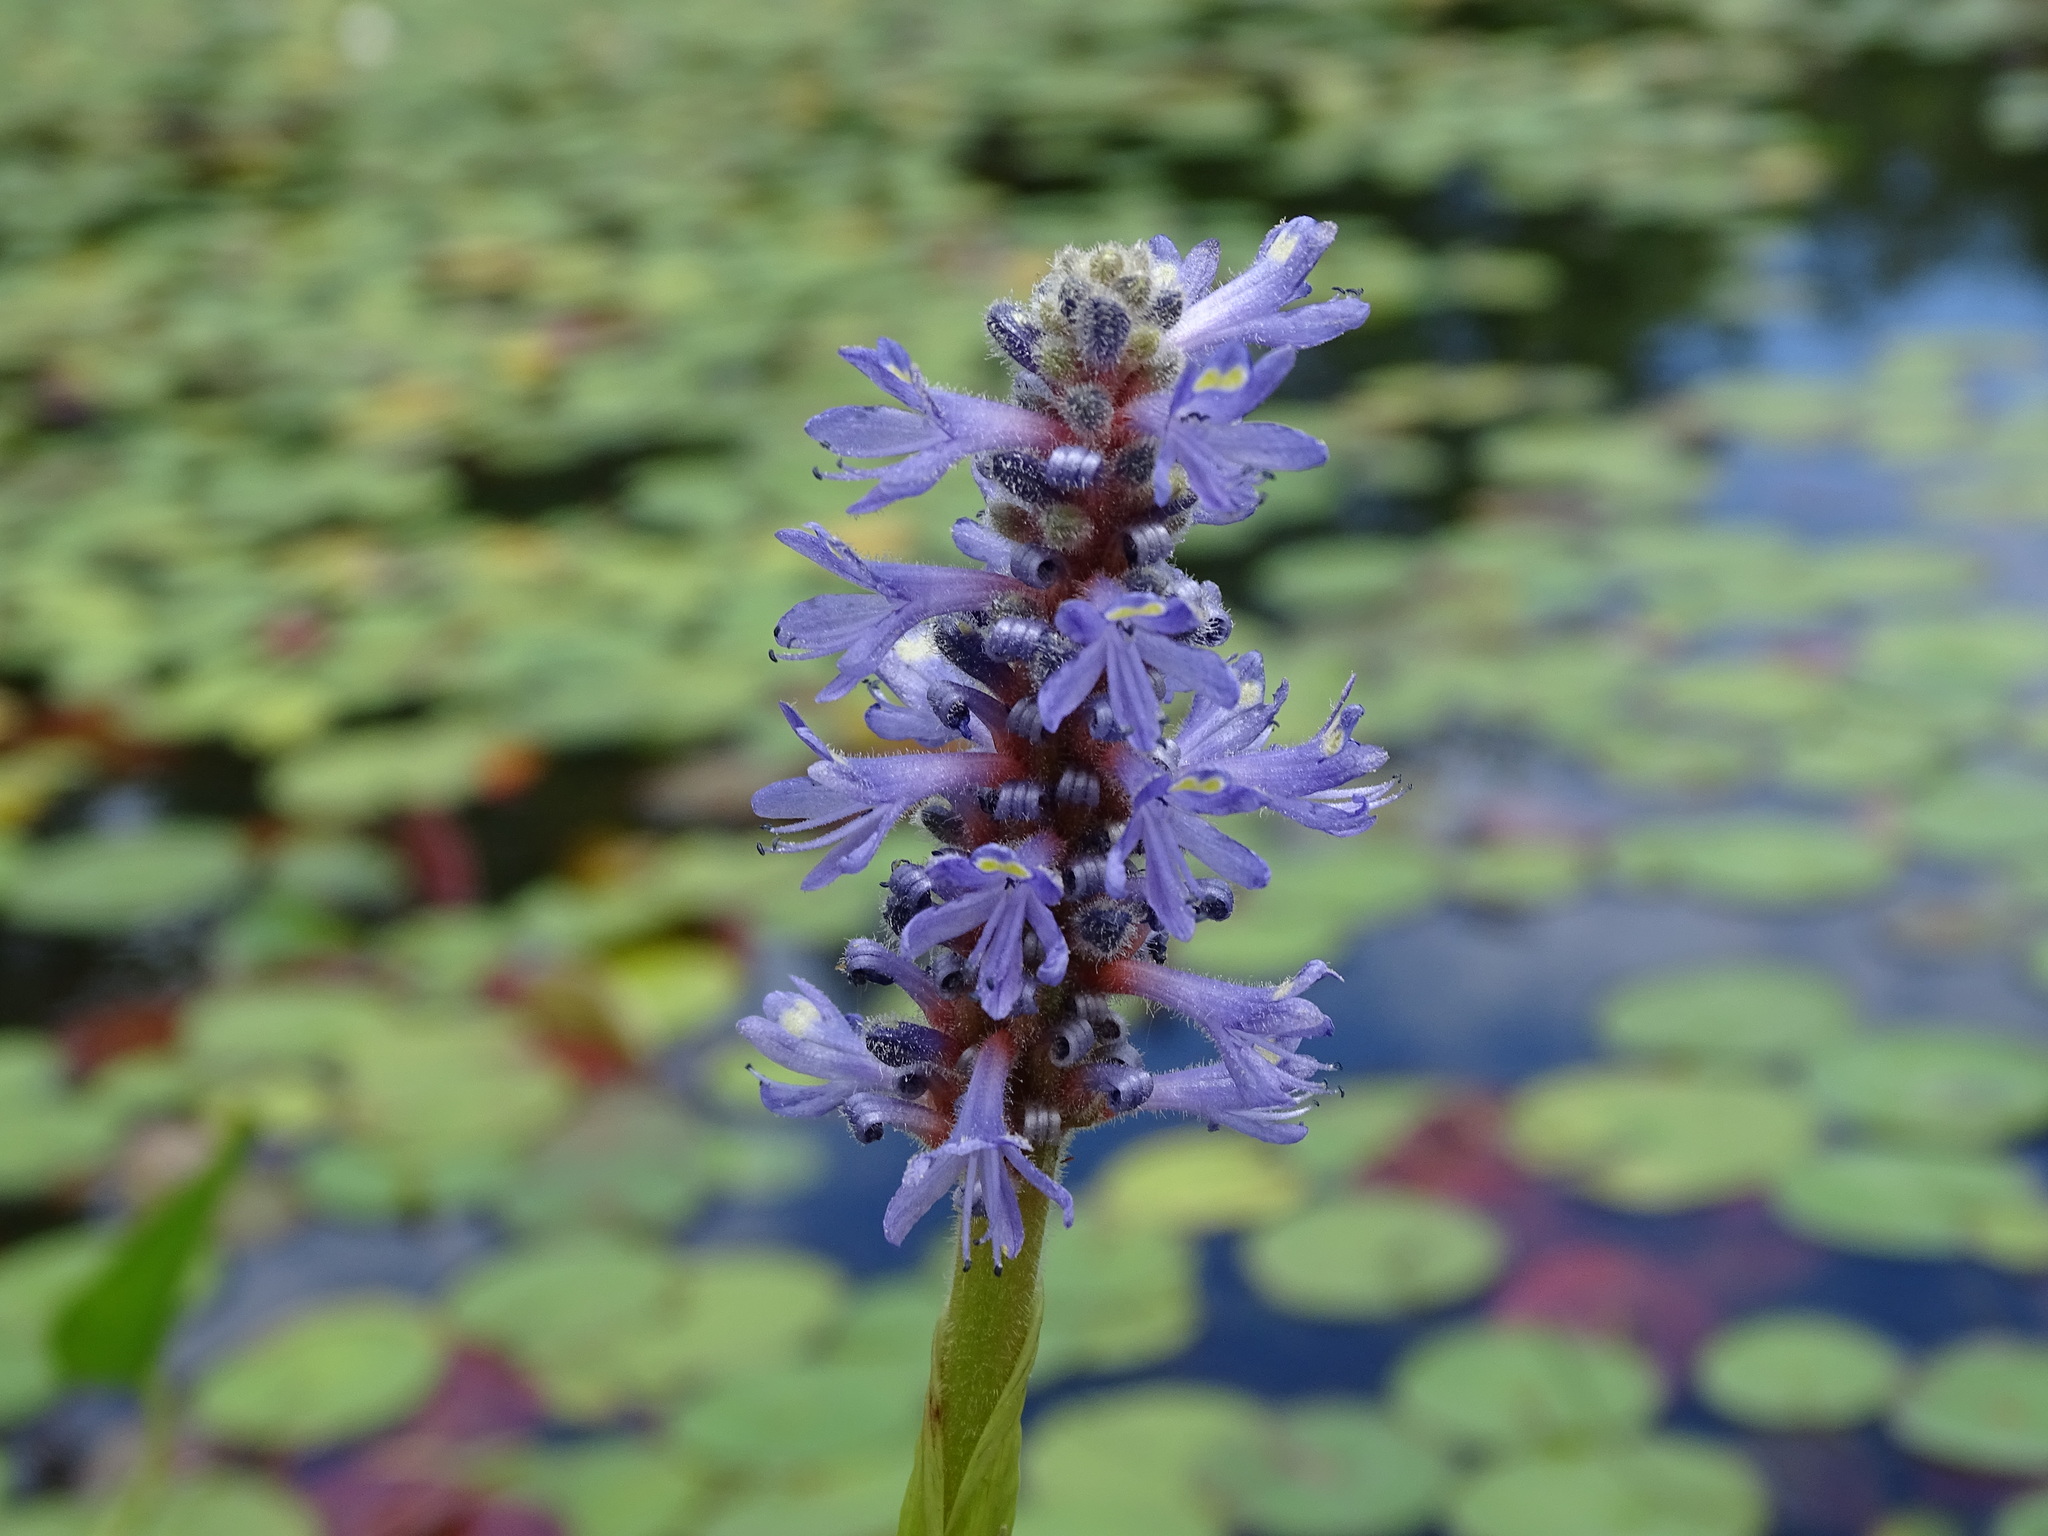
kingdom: Plantae
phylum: Tracheophyta
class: Liliopsida
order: Commelinales
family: Pontederiaceae
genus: Pontederia
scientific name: Pontederia cordata
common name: Pickerelweed
